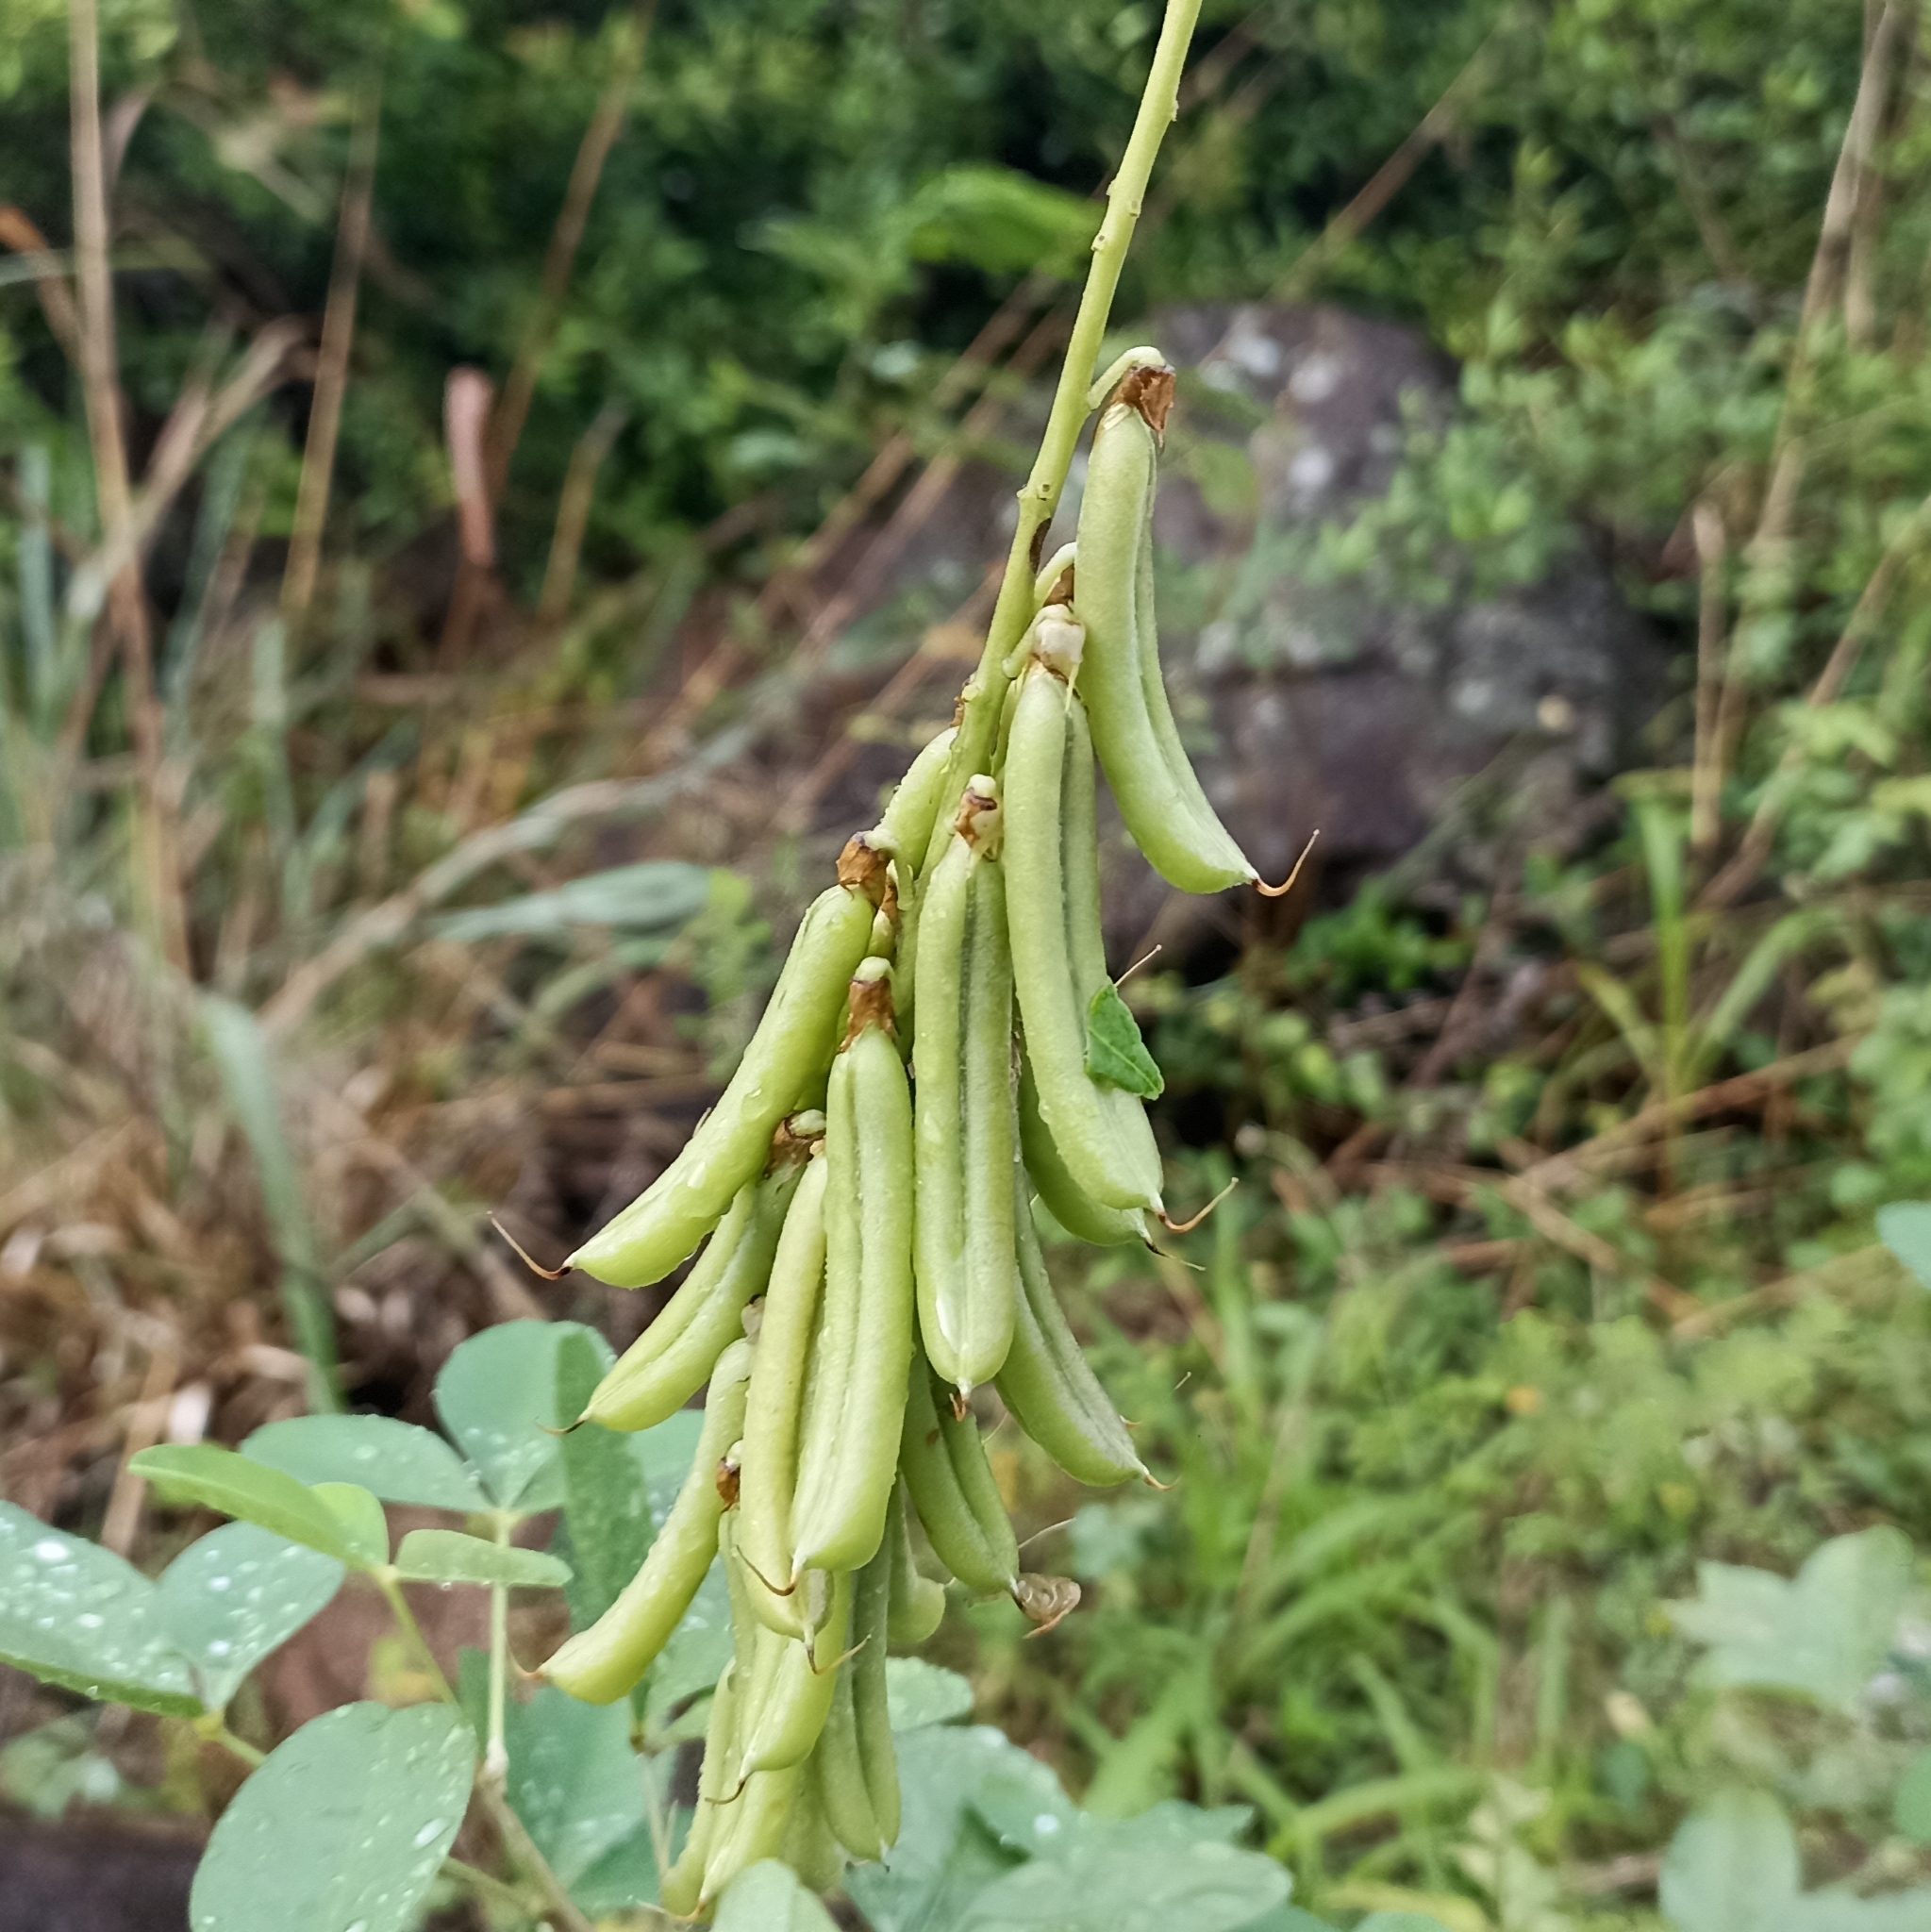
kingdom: Plantae
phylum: Tracheophyta
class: Magnoliopsida
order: Fabales
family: Fabaceae
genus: Crotalaria
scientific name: Crotalaria pallida
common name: Smooth rattlebox
